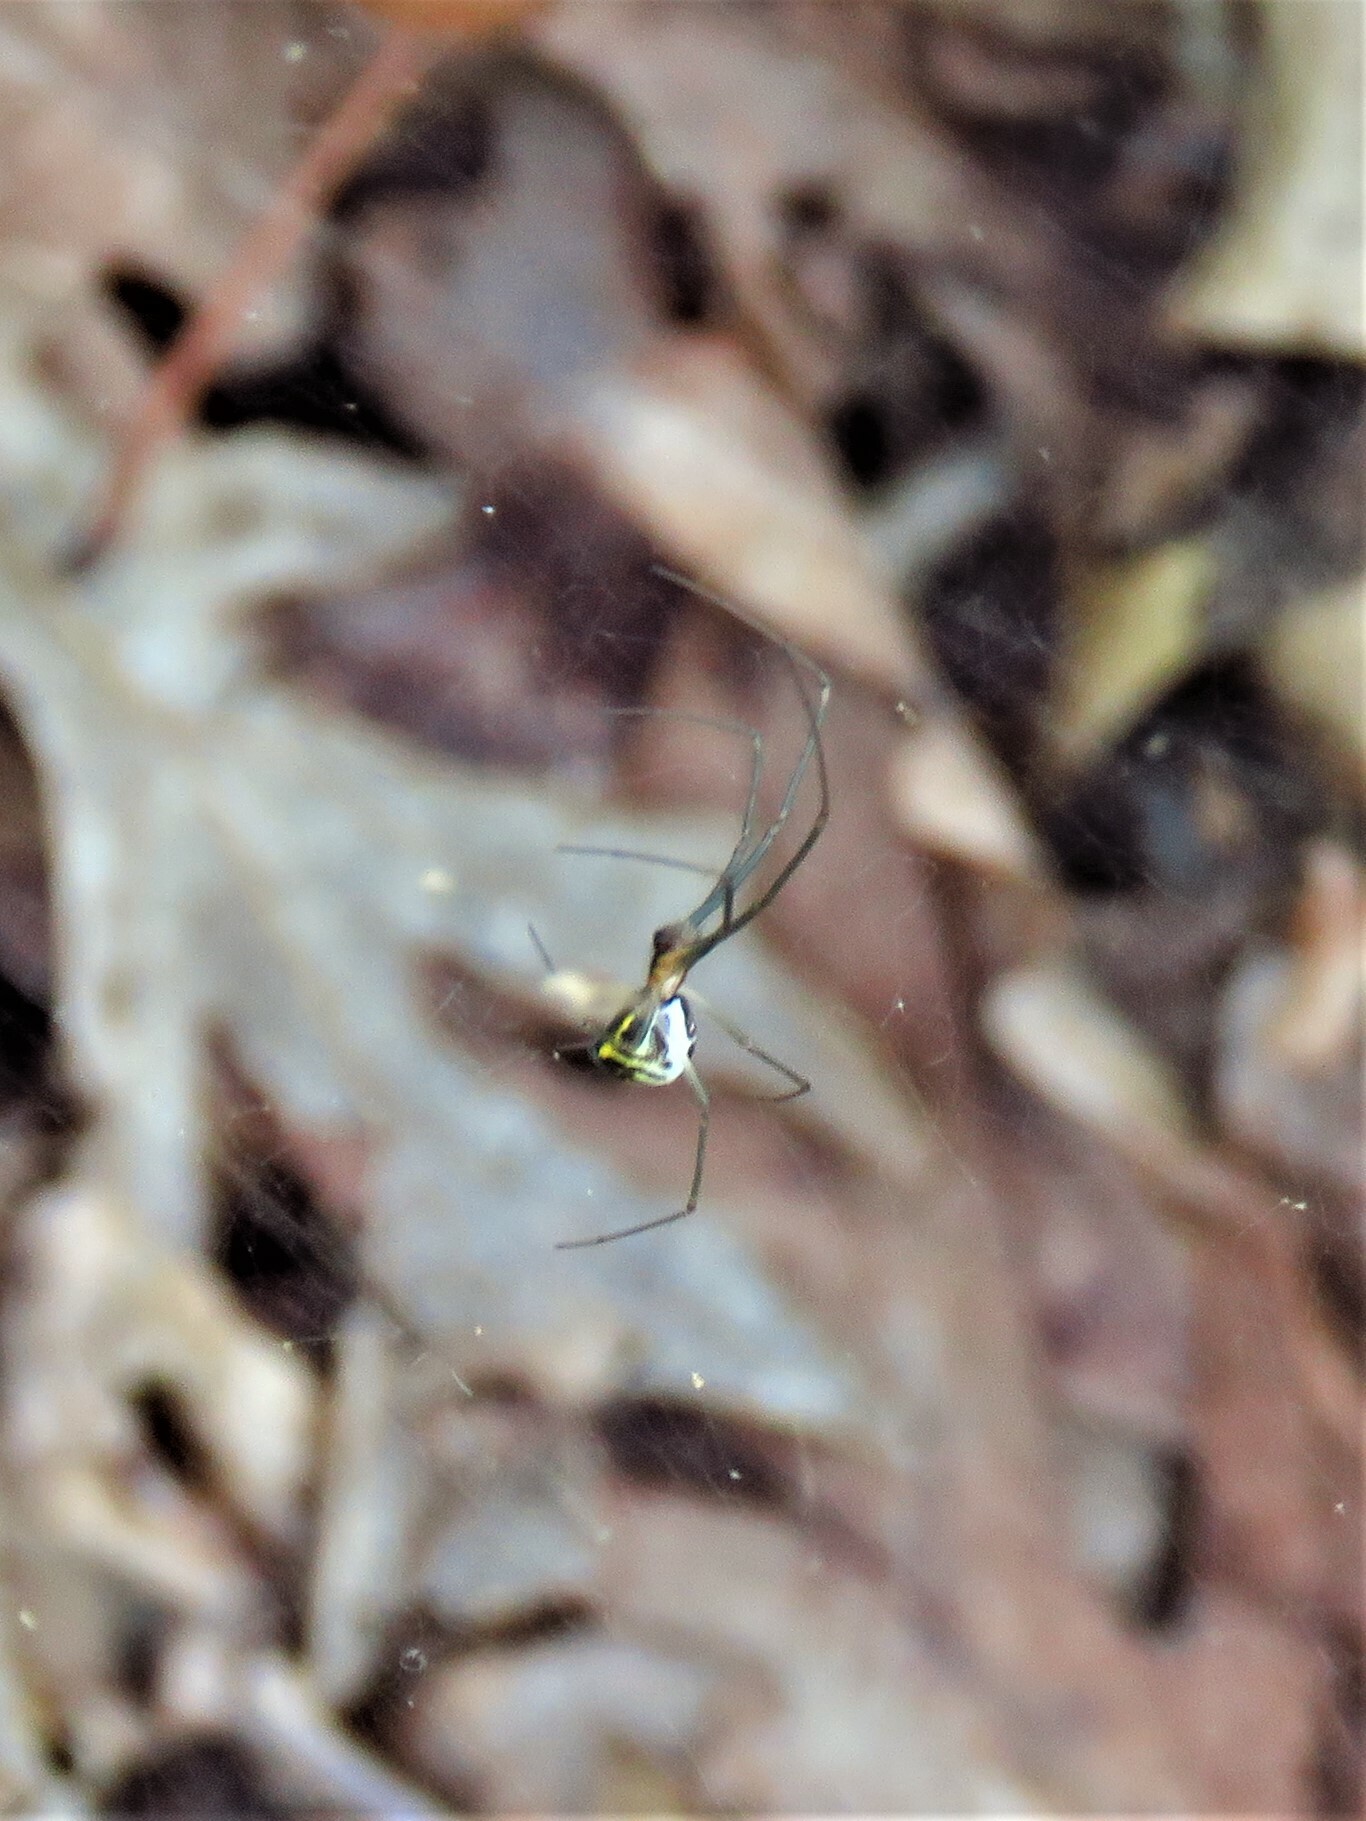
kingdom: Animalia
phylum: Arthropoda
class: Arachnida
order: Araneae
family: Linyphiidae
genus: Neriene
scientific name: Neriene radiata
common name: Filmy dome spider
